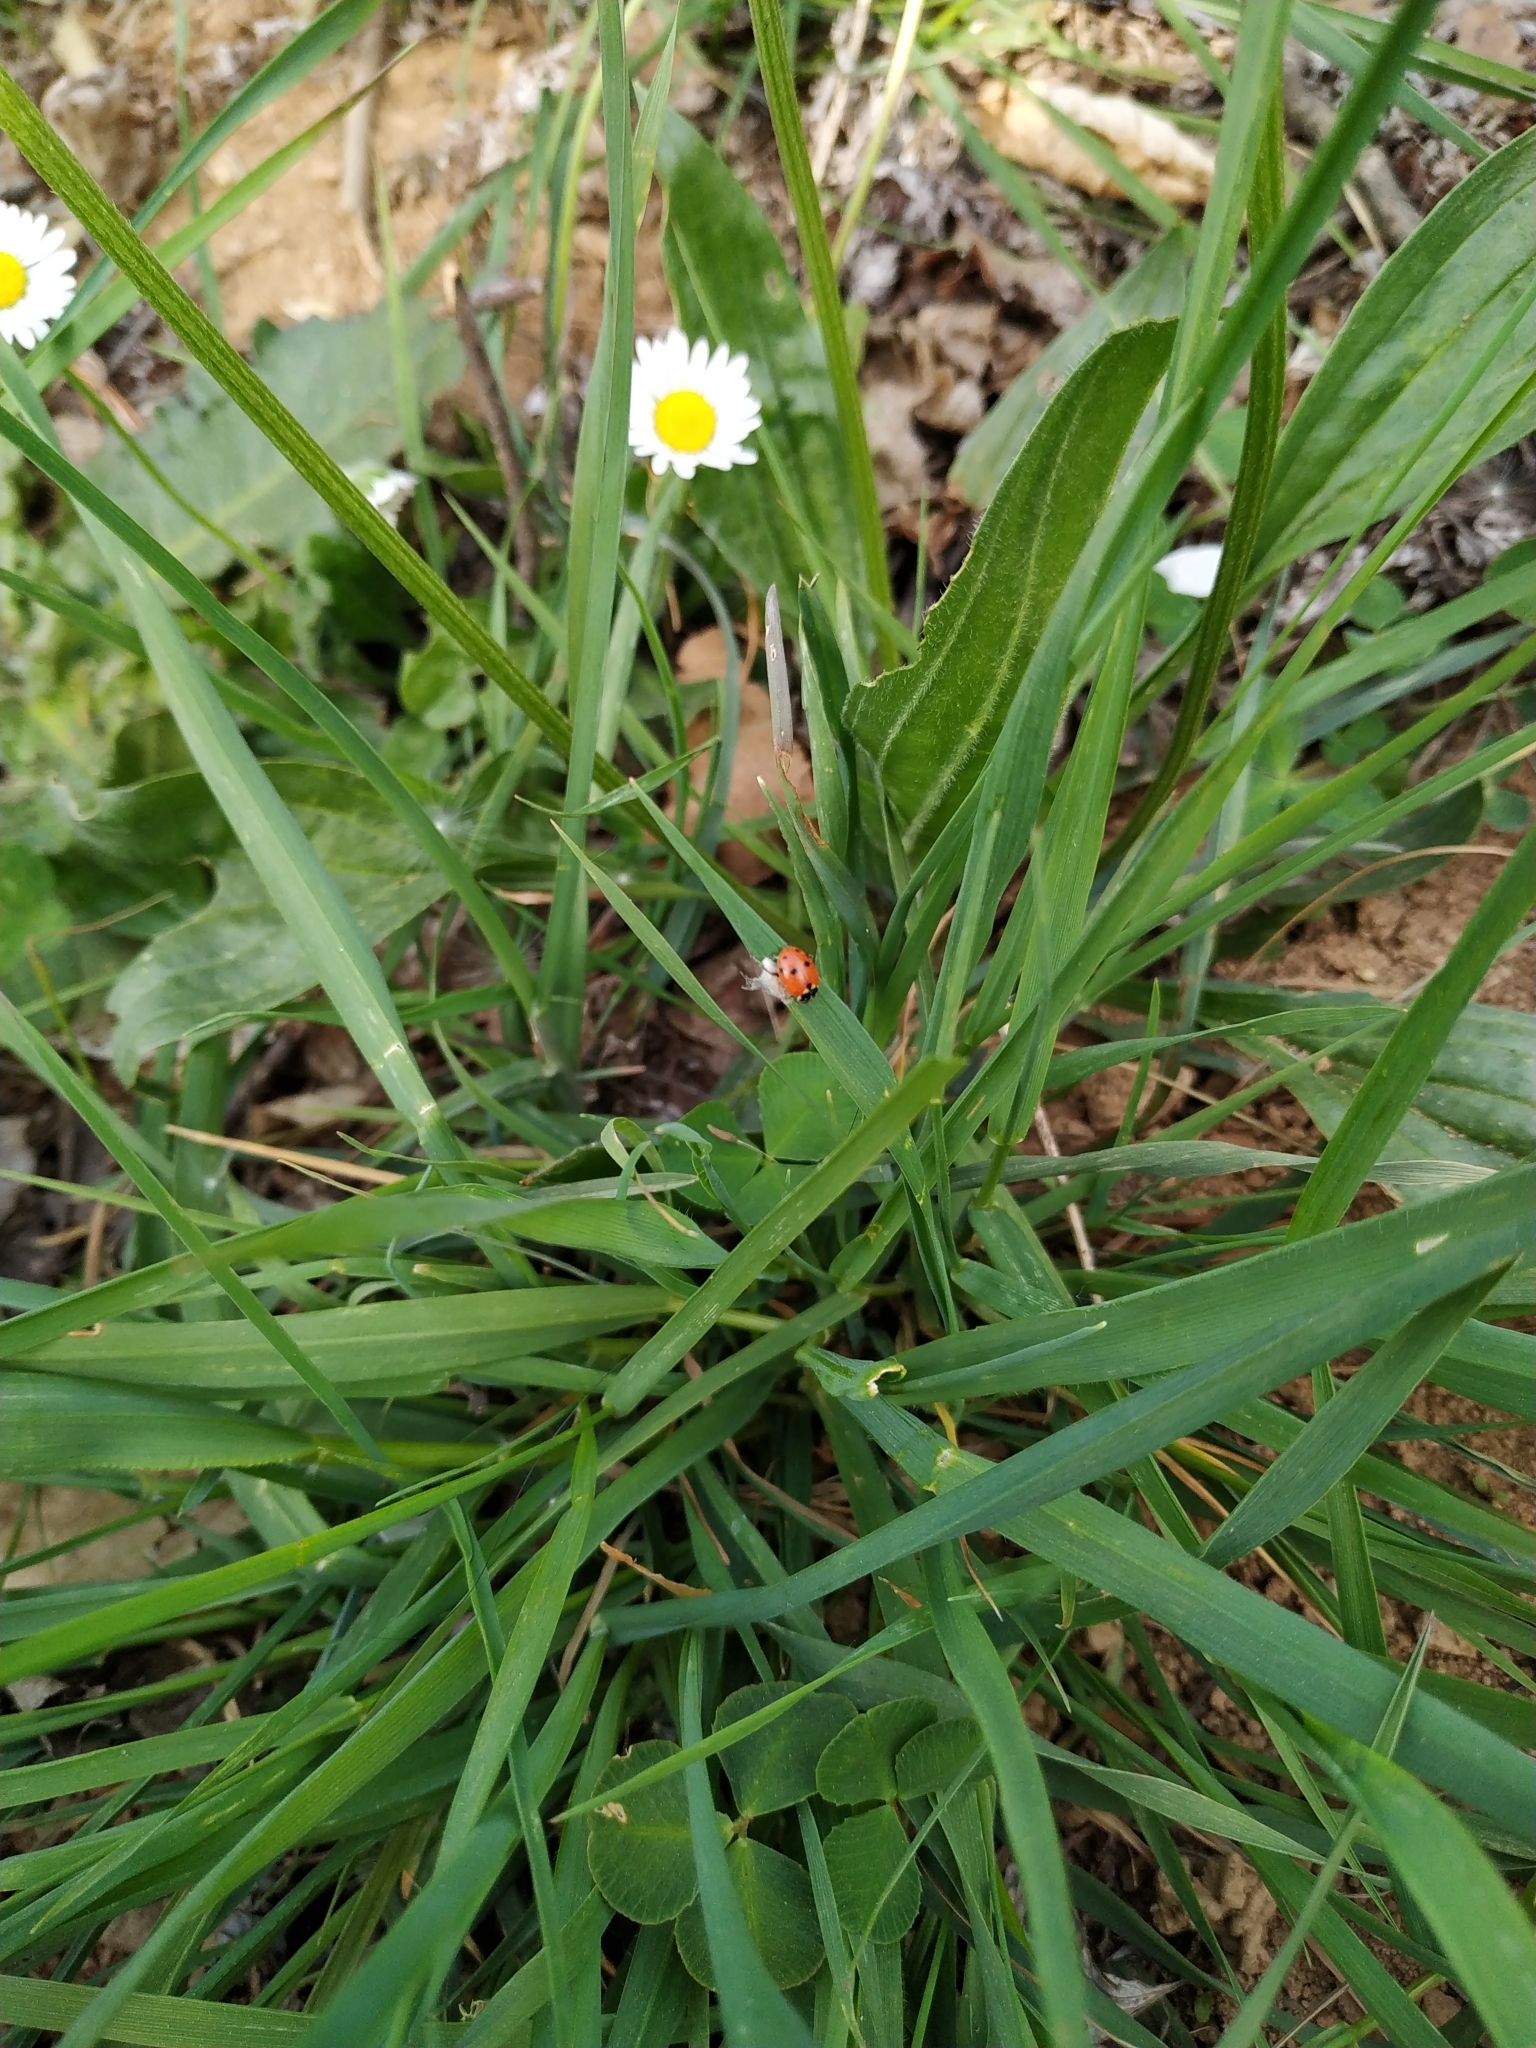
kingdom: Animalia
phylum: Arthropoda
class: Insecta
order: Coleoptera
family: Coccinellidae
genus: Hippodamia
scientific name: Hippodamia variegata
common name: Ladybird beetle
